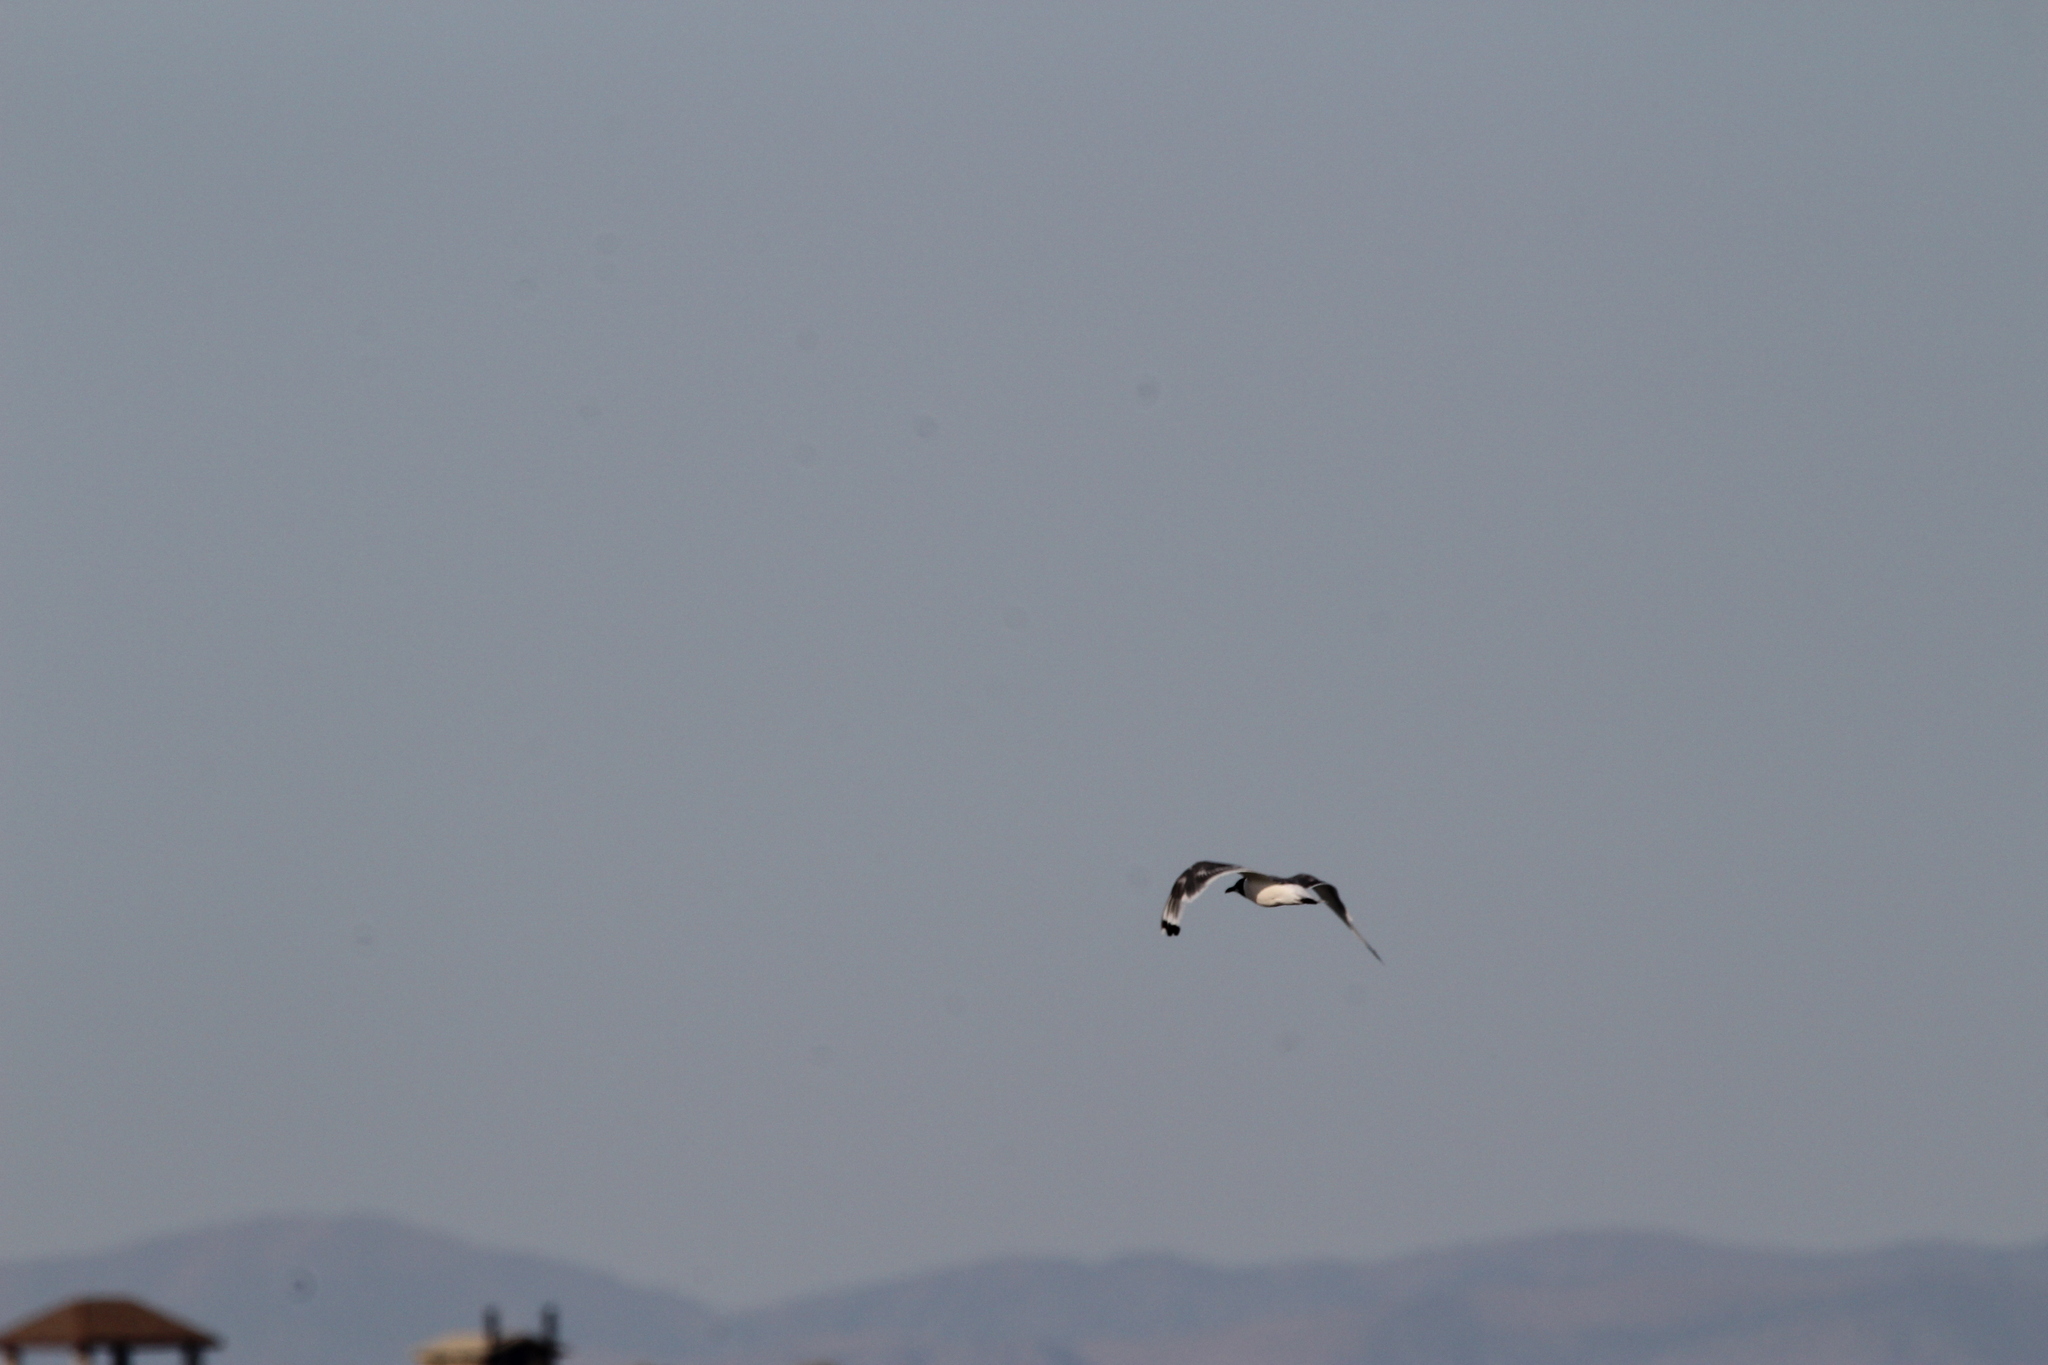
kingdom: Animalia
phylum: Chordata
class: Aves
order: Charadriiformes
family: Laridae
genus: Leucophaeus
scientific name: Leucophaeus pipixcan
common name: Franklin's gull
